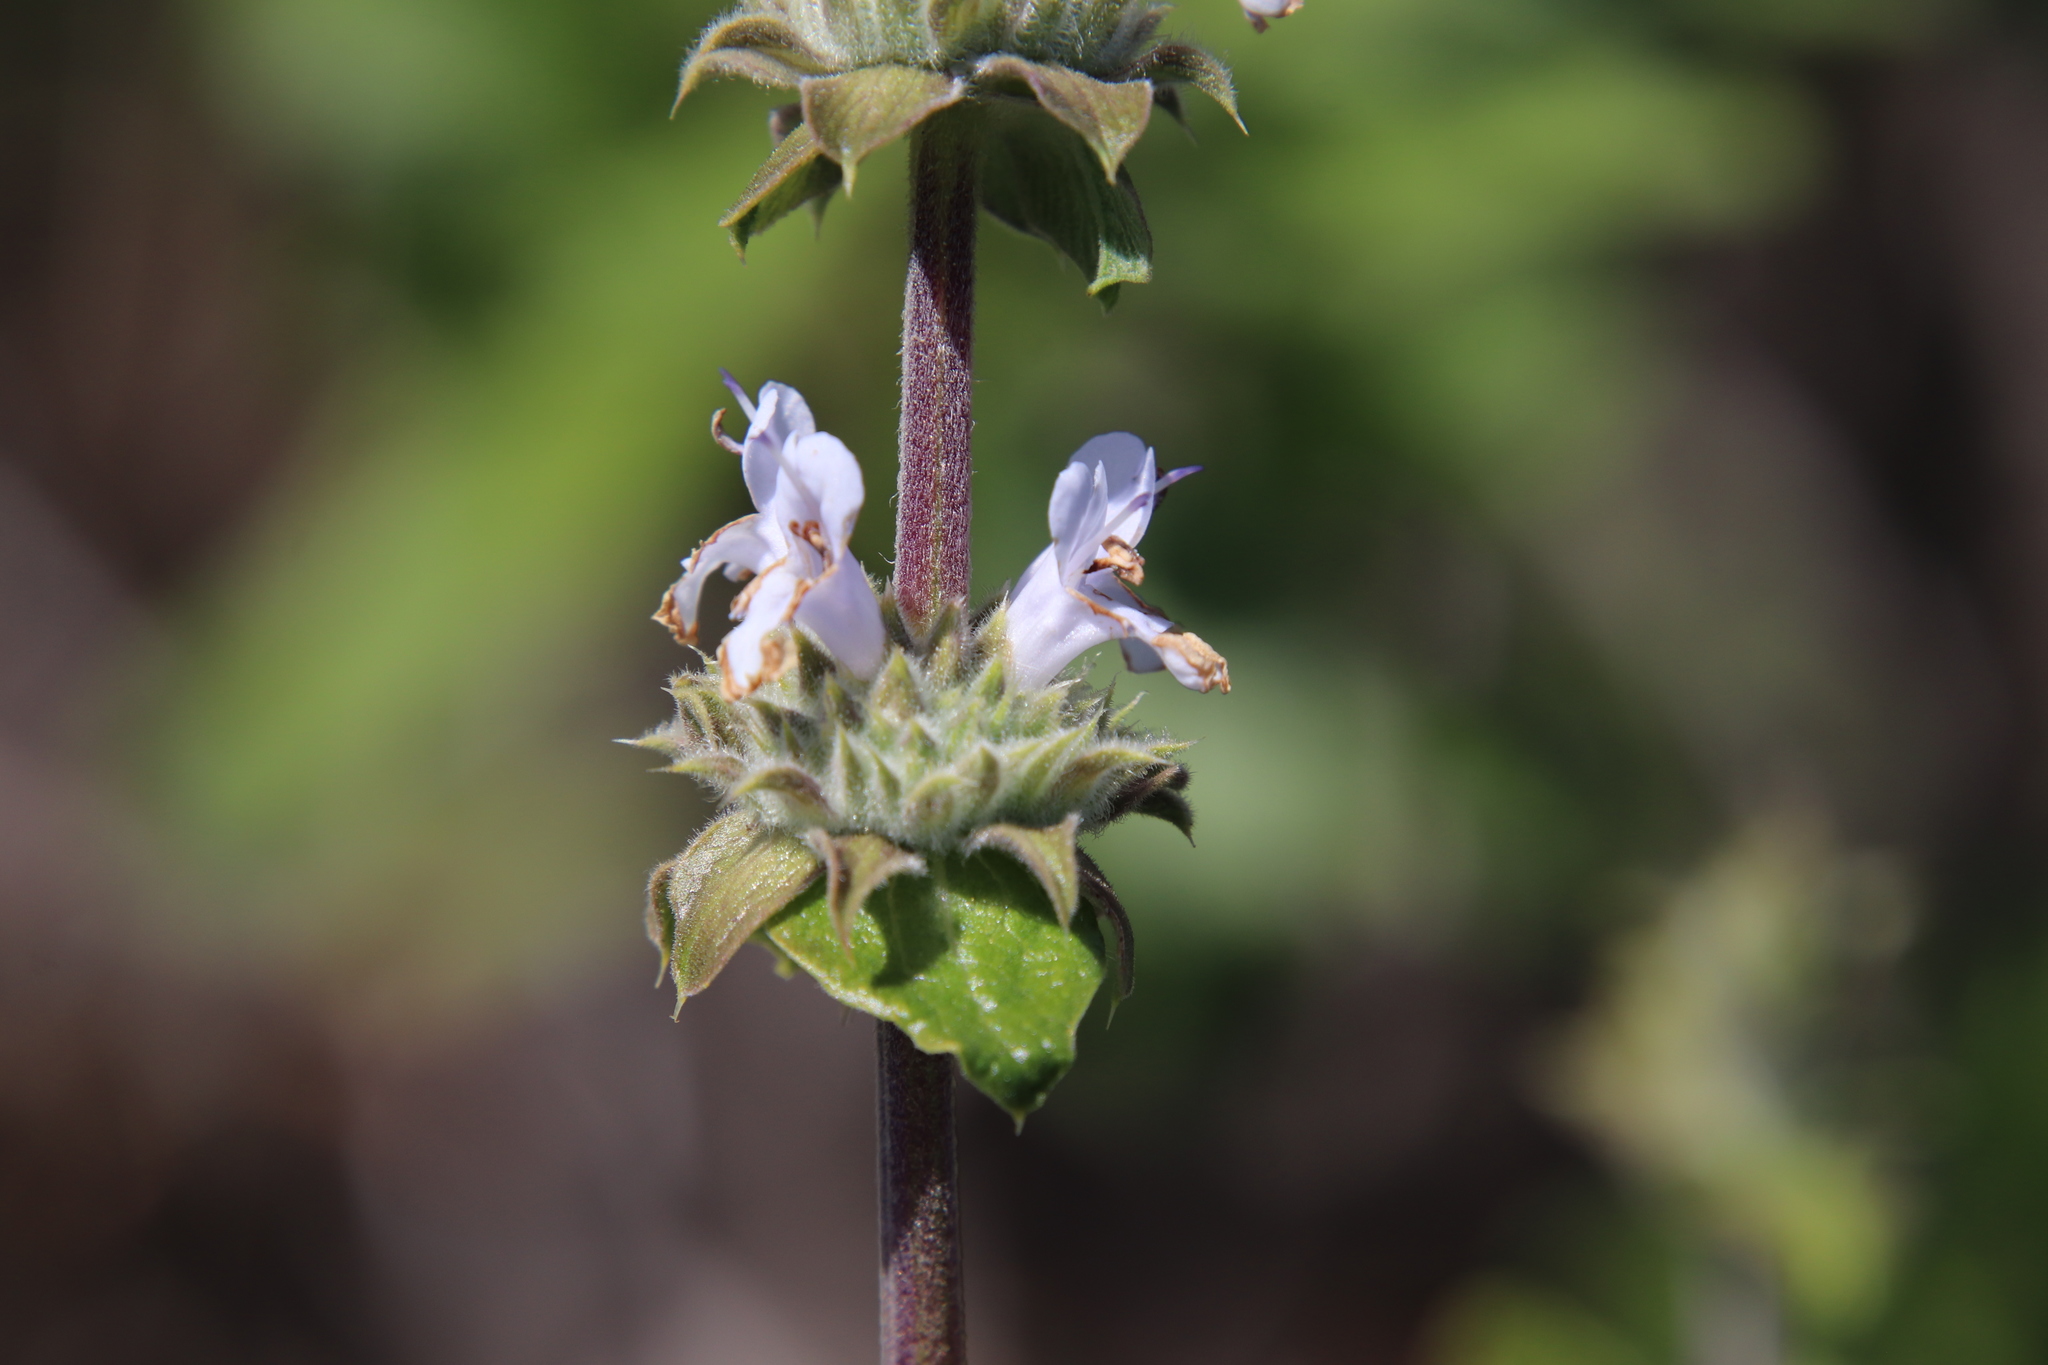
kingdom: Plantae
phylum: Tracheophyta
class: Magnoliopsida
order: Lamiales
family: Lamiaceae
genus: Salvia
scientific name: Salvia mellifera
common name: Black sage
